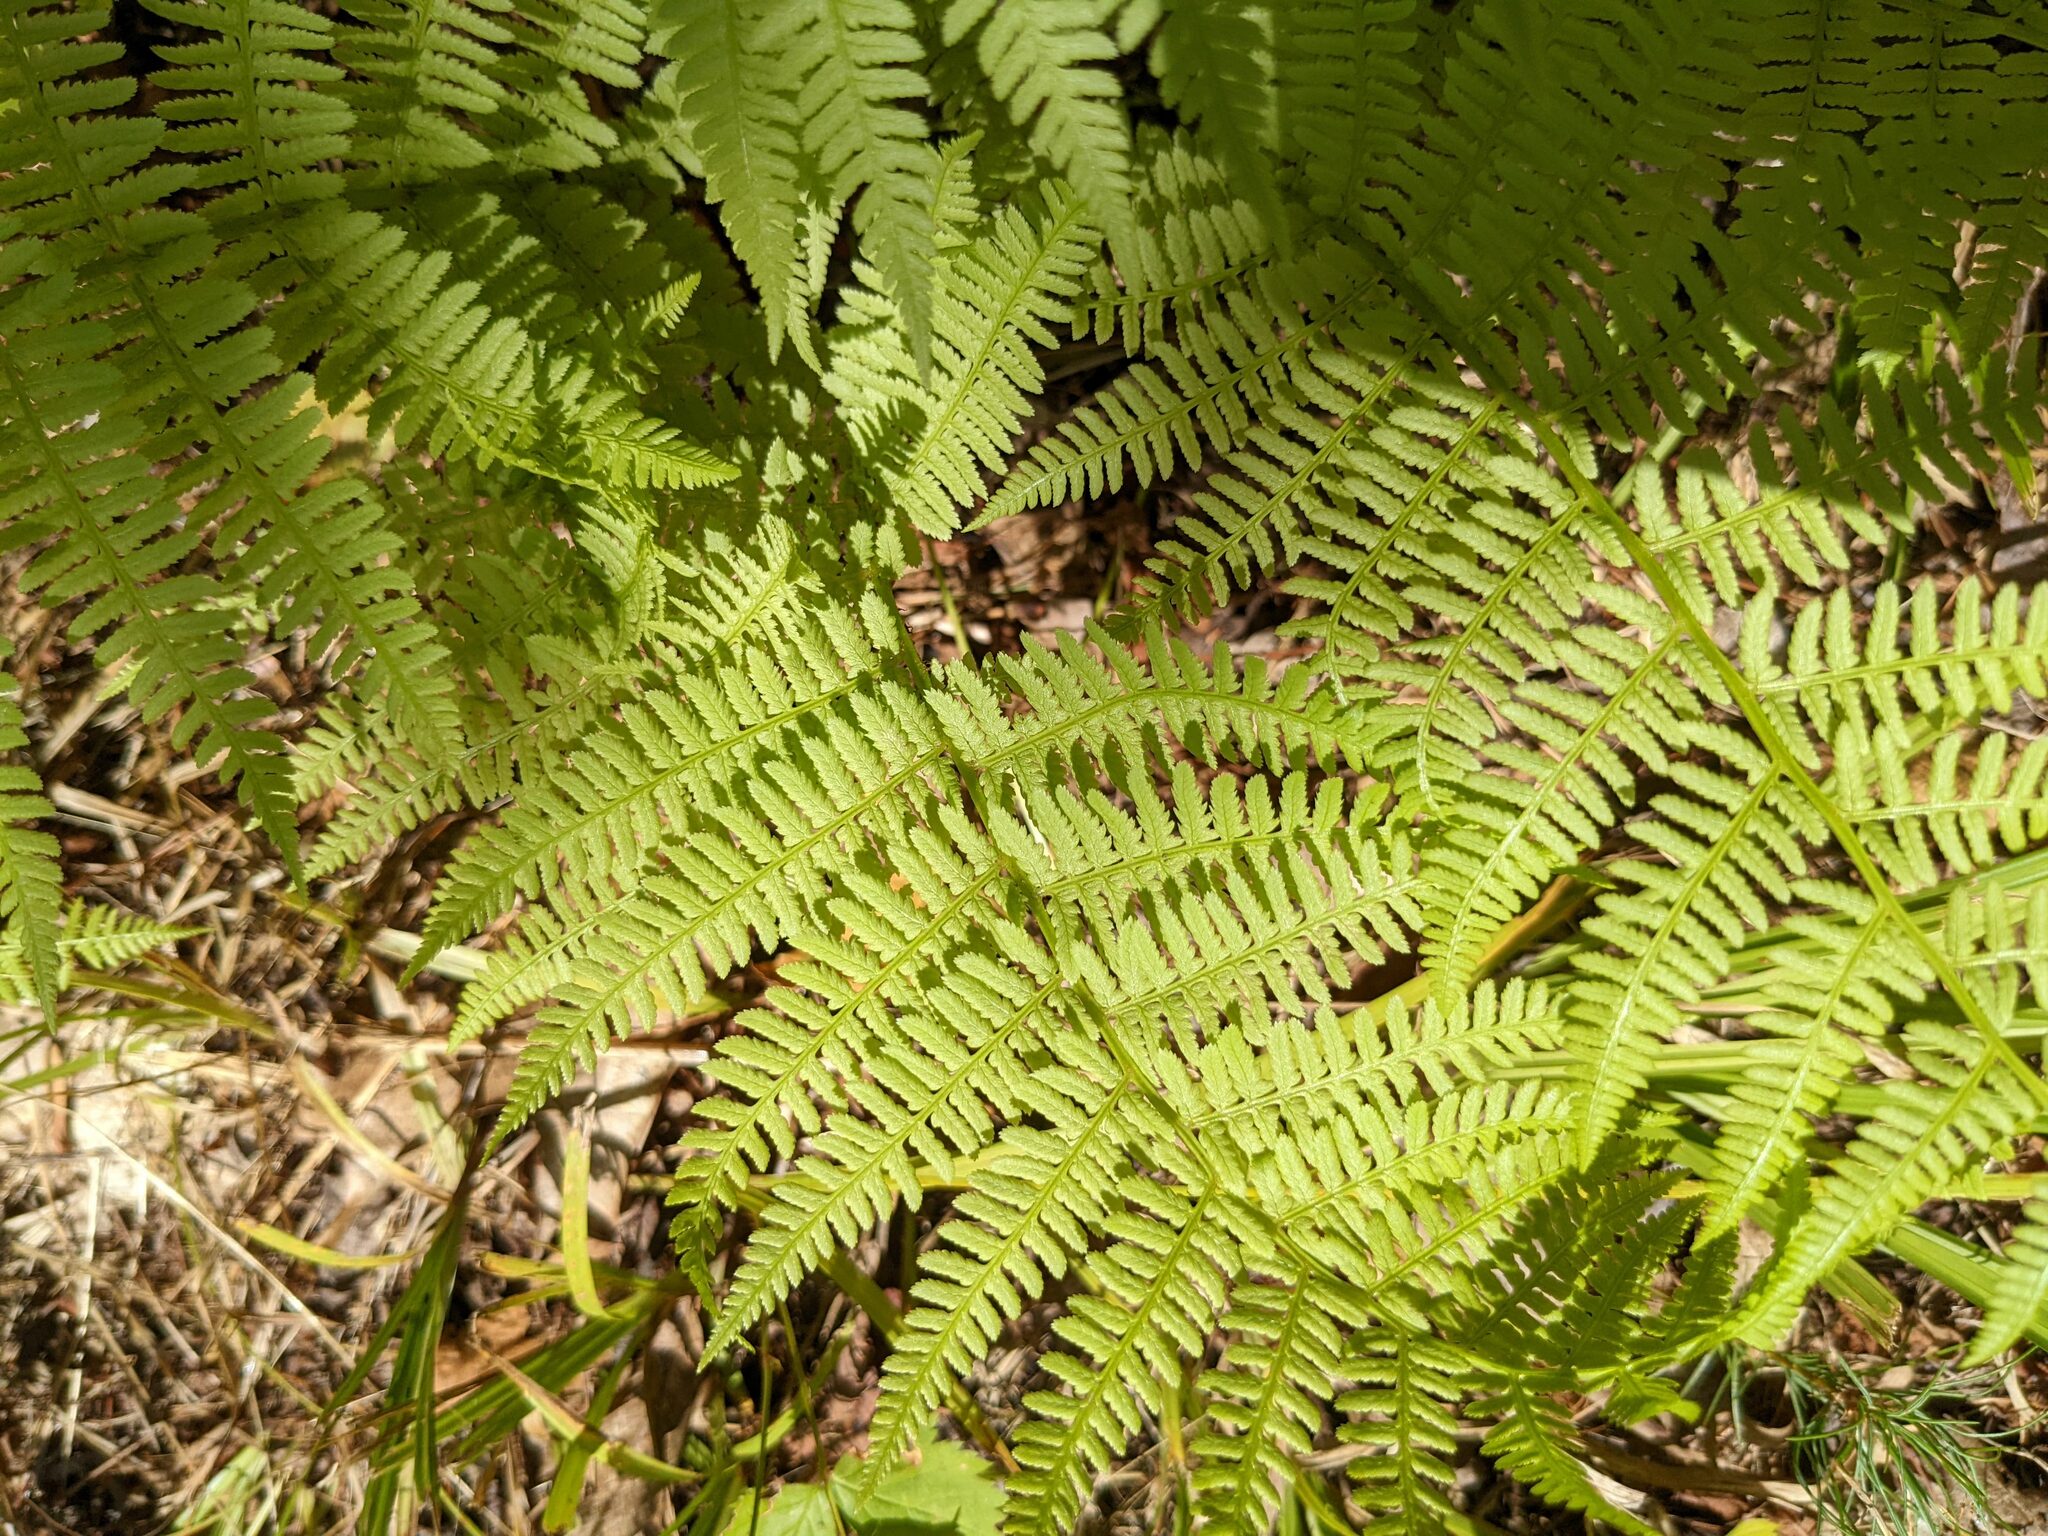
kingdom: Plantae
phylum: Tracheophyta
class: Polypodiopsida
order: Polypodiales
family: Athyriaceae
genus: Athyrium
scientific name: Athyrium angustum
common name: Northern lady fern
